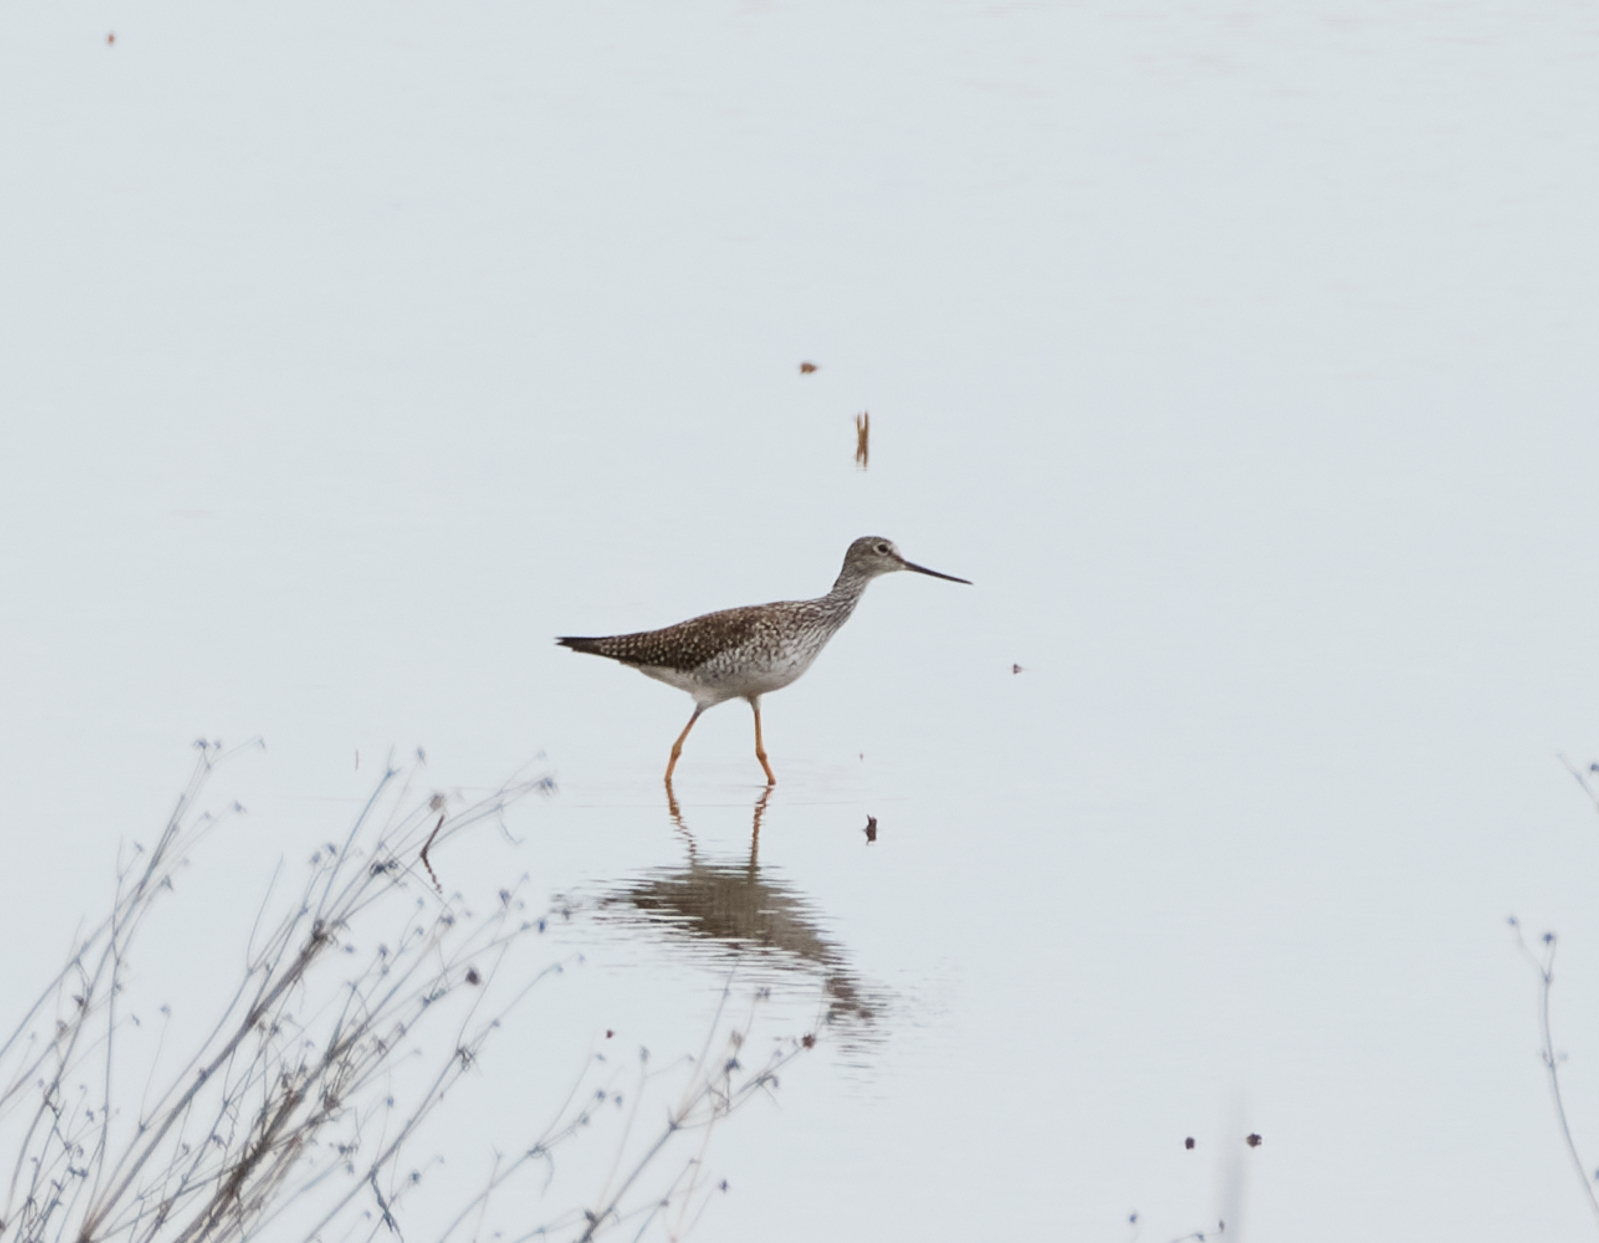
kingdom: Animalia
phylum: Chordata
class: Aves
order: Charadriiformes
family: Scolopacidae
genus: Tringa
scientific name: Tringa melanoleuca
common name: Greater yellowlegs
